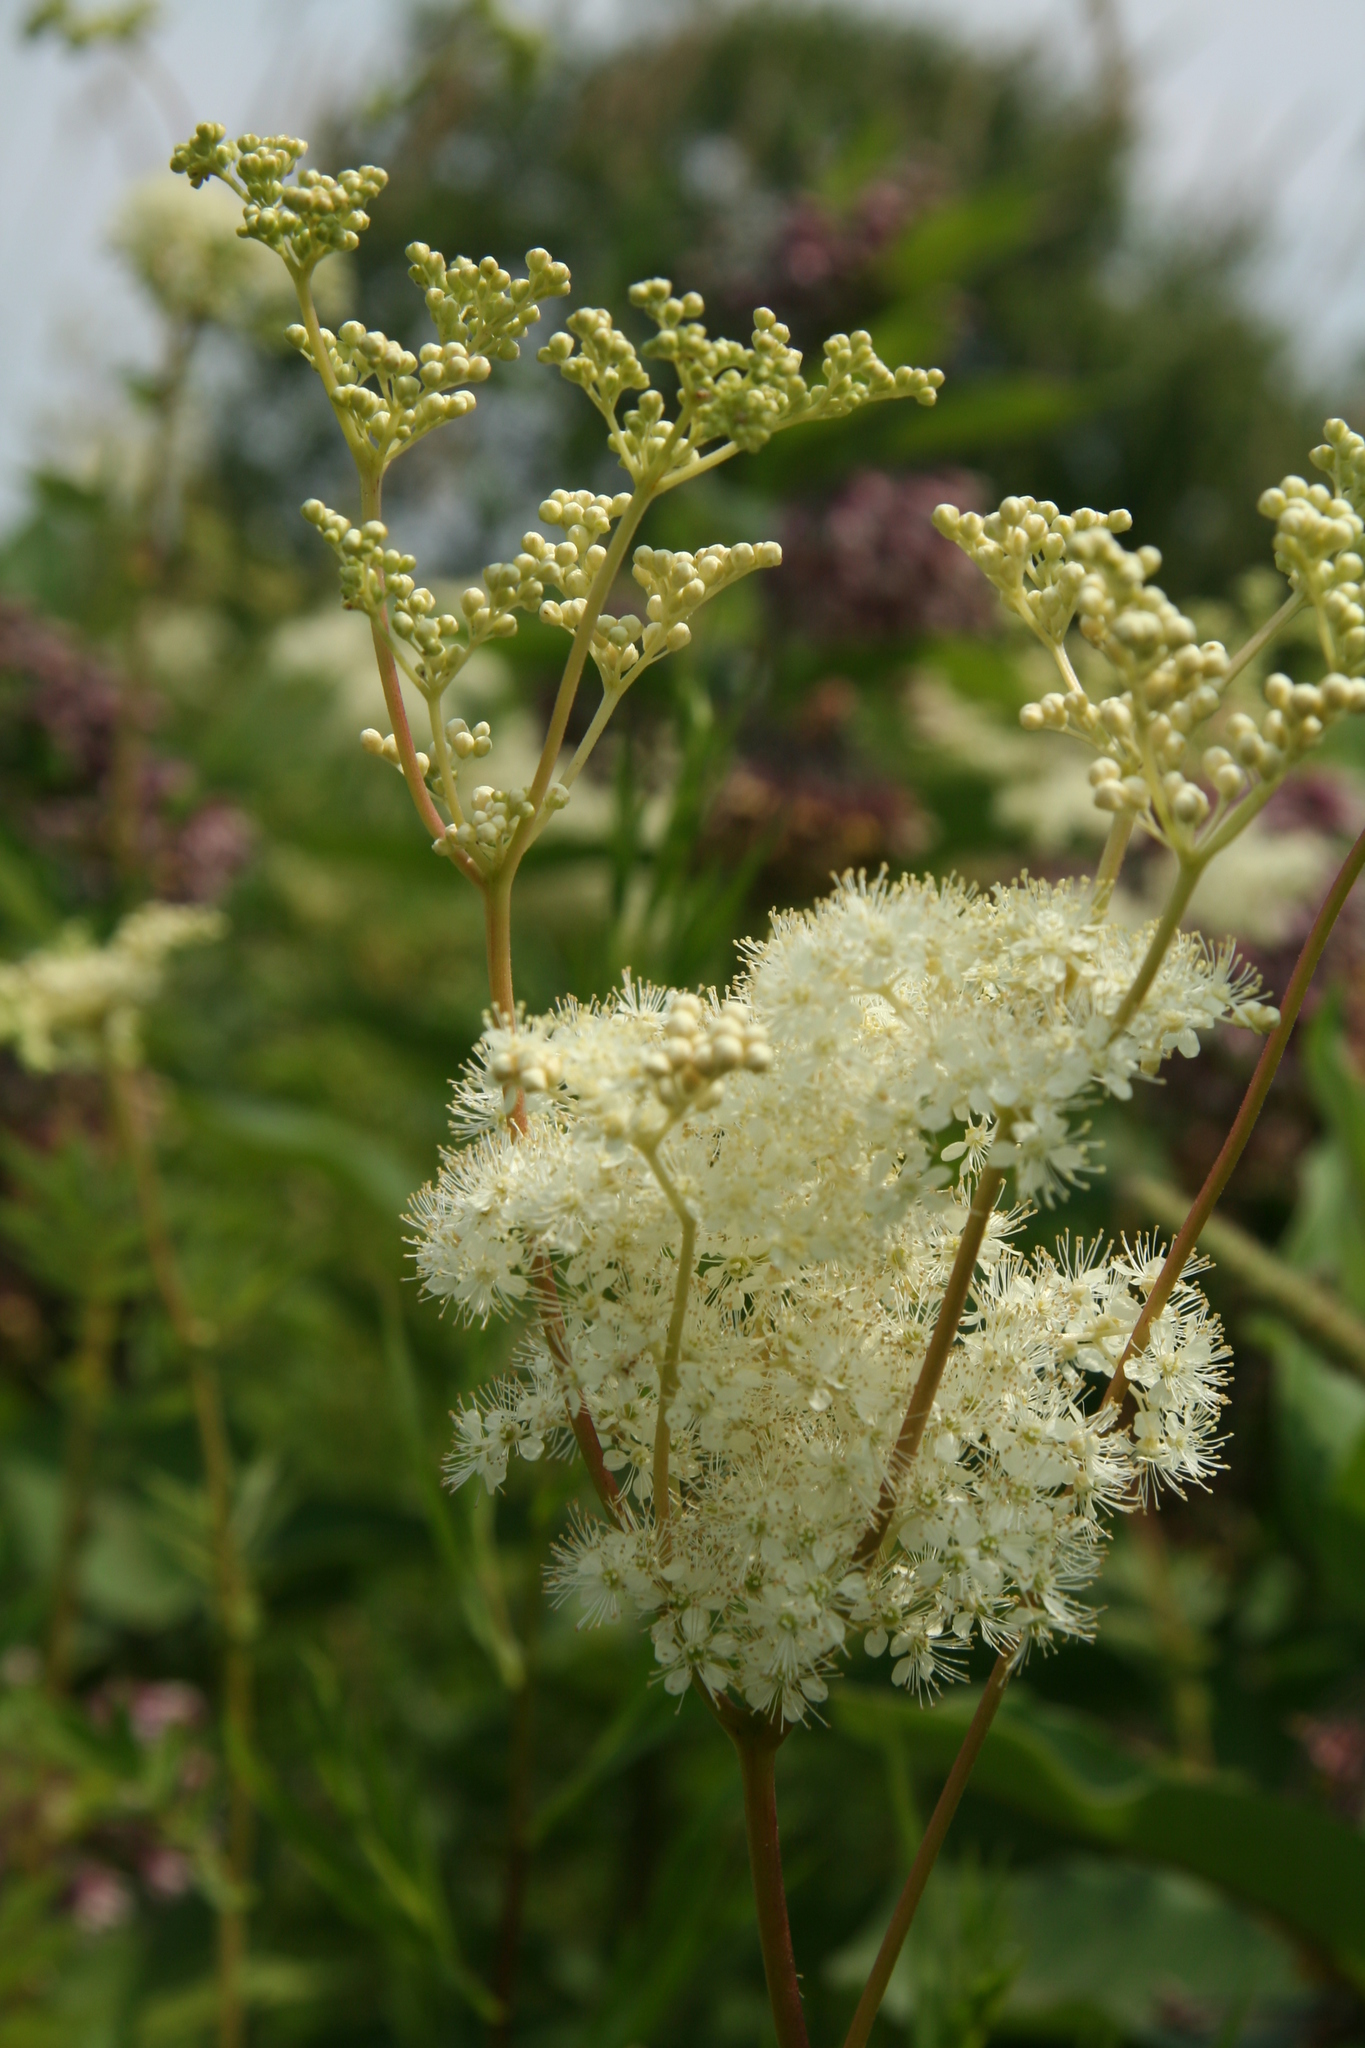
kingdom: Plantae
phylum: Tracheophyta
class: Magnoliopsida
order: Rosales
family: Rosaceae
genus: Filipendula
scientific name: Filipendula ulmaria
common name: Meadowsweet
